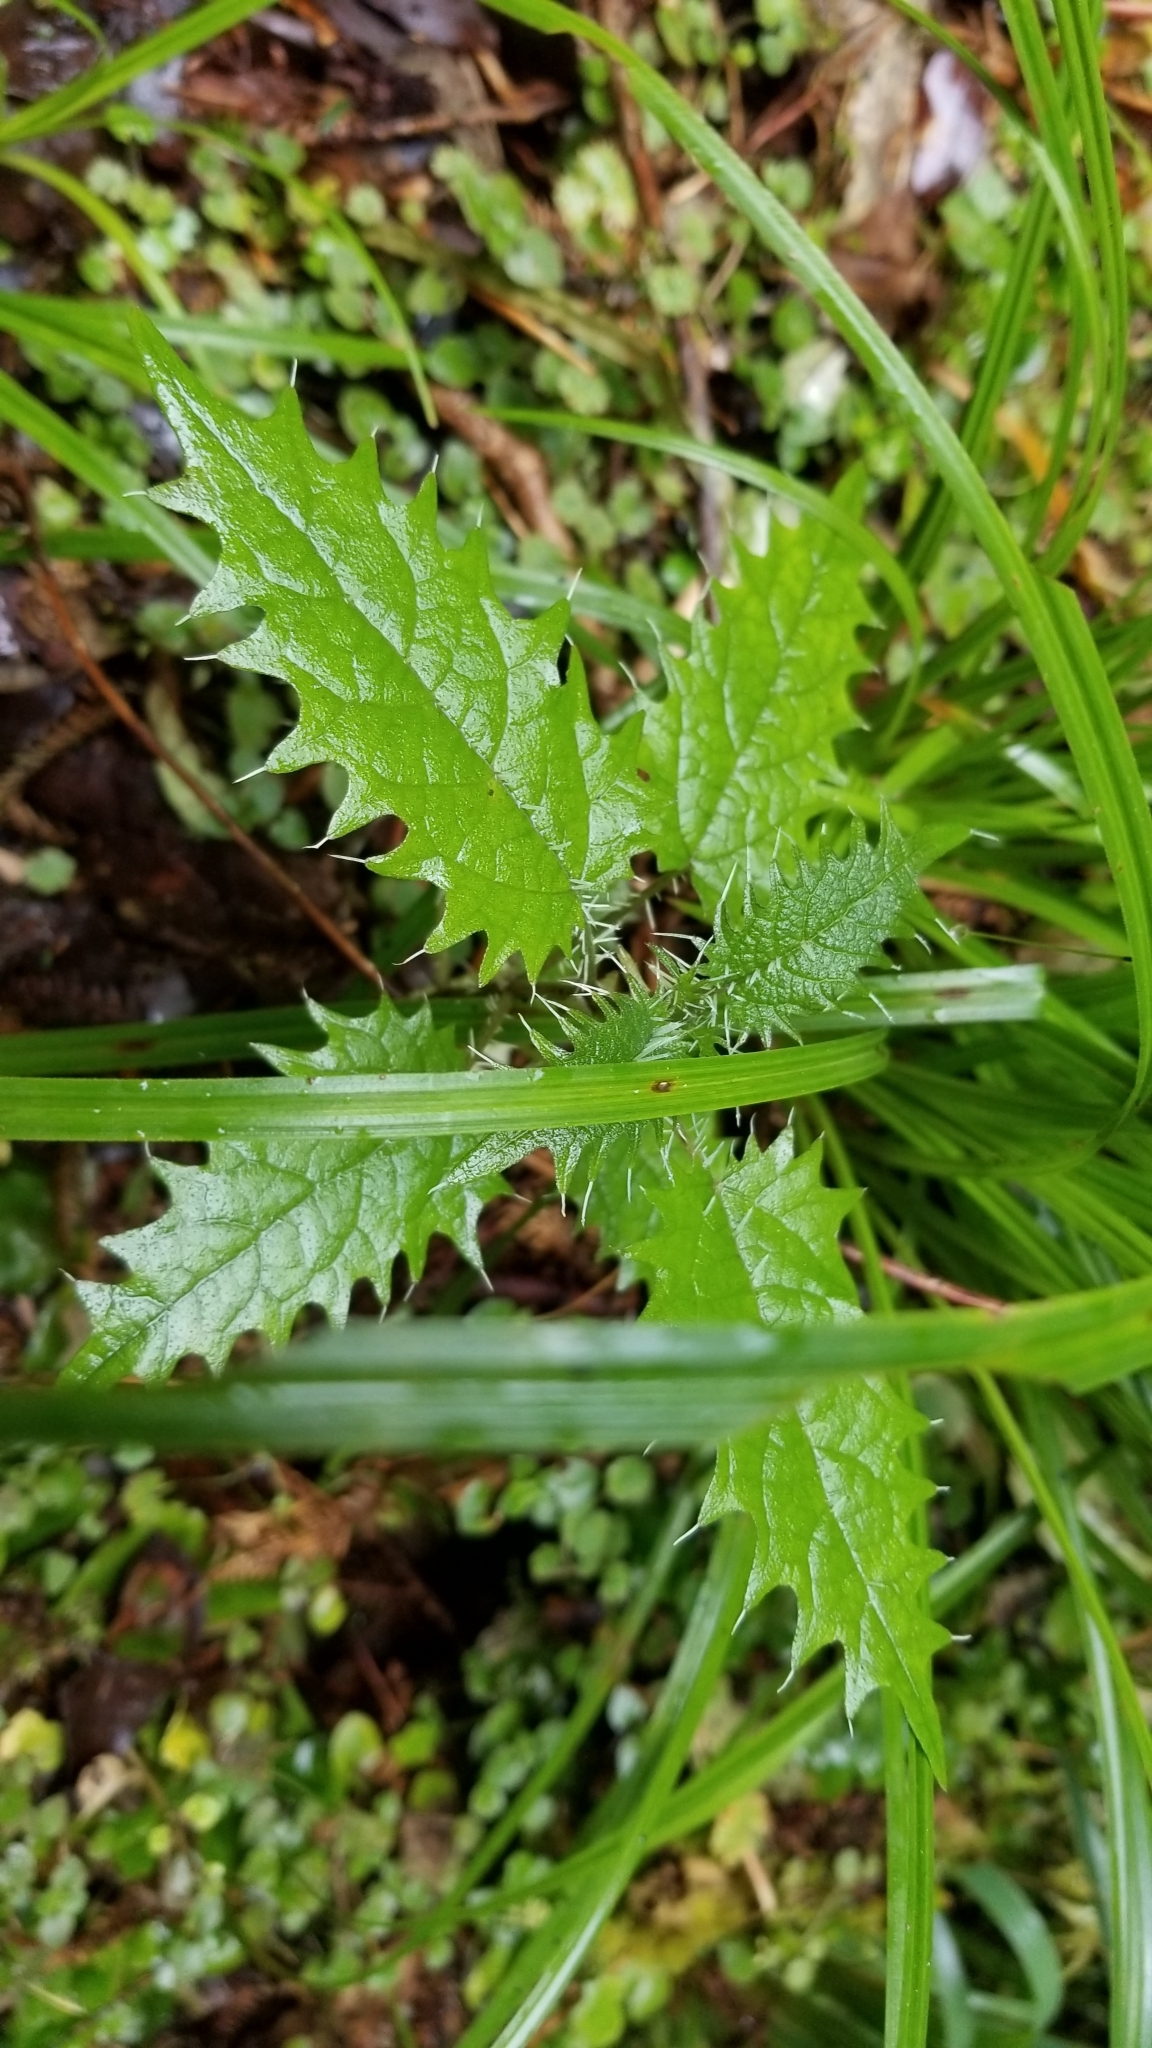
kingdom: Plantae
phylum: Tracheophyta
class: Magnoliopsida
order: Rosales
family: Urticaceae
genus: Urtica
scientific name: Urtica ferox
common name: Tree nettle
